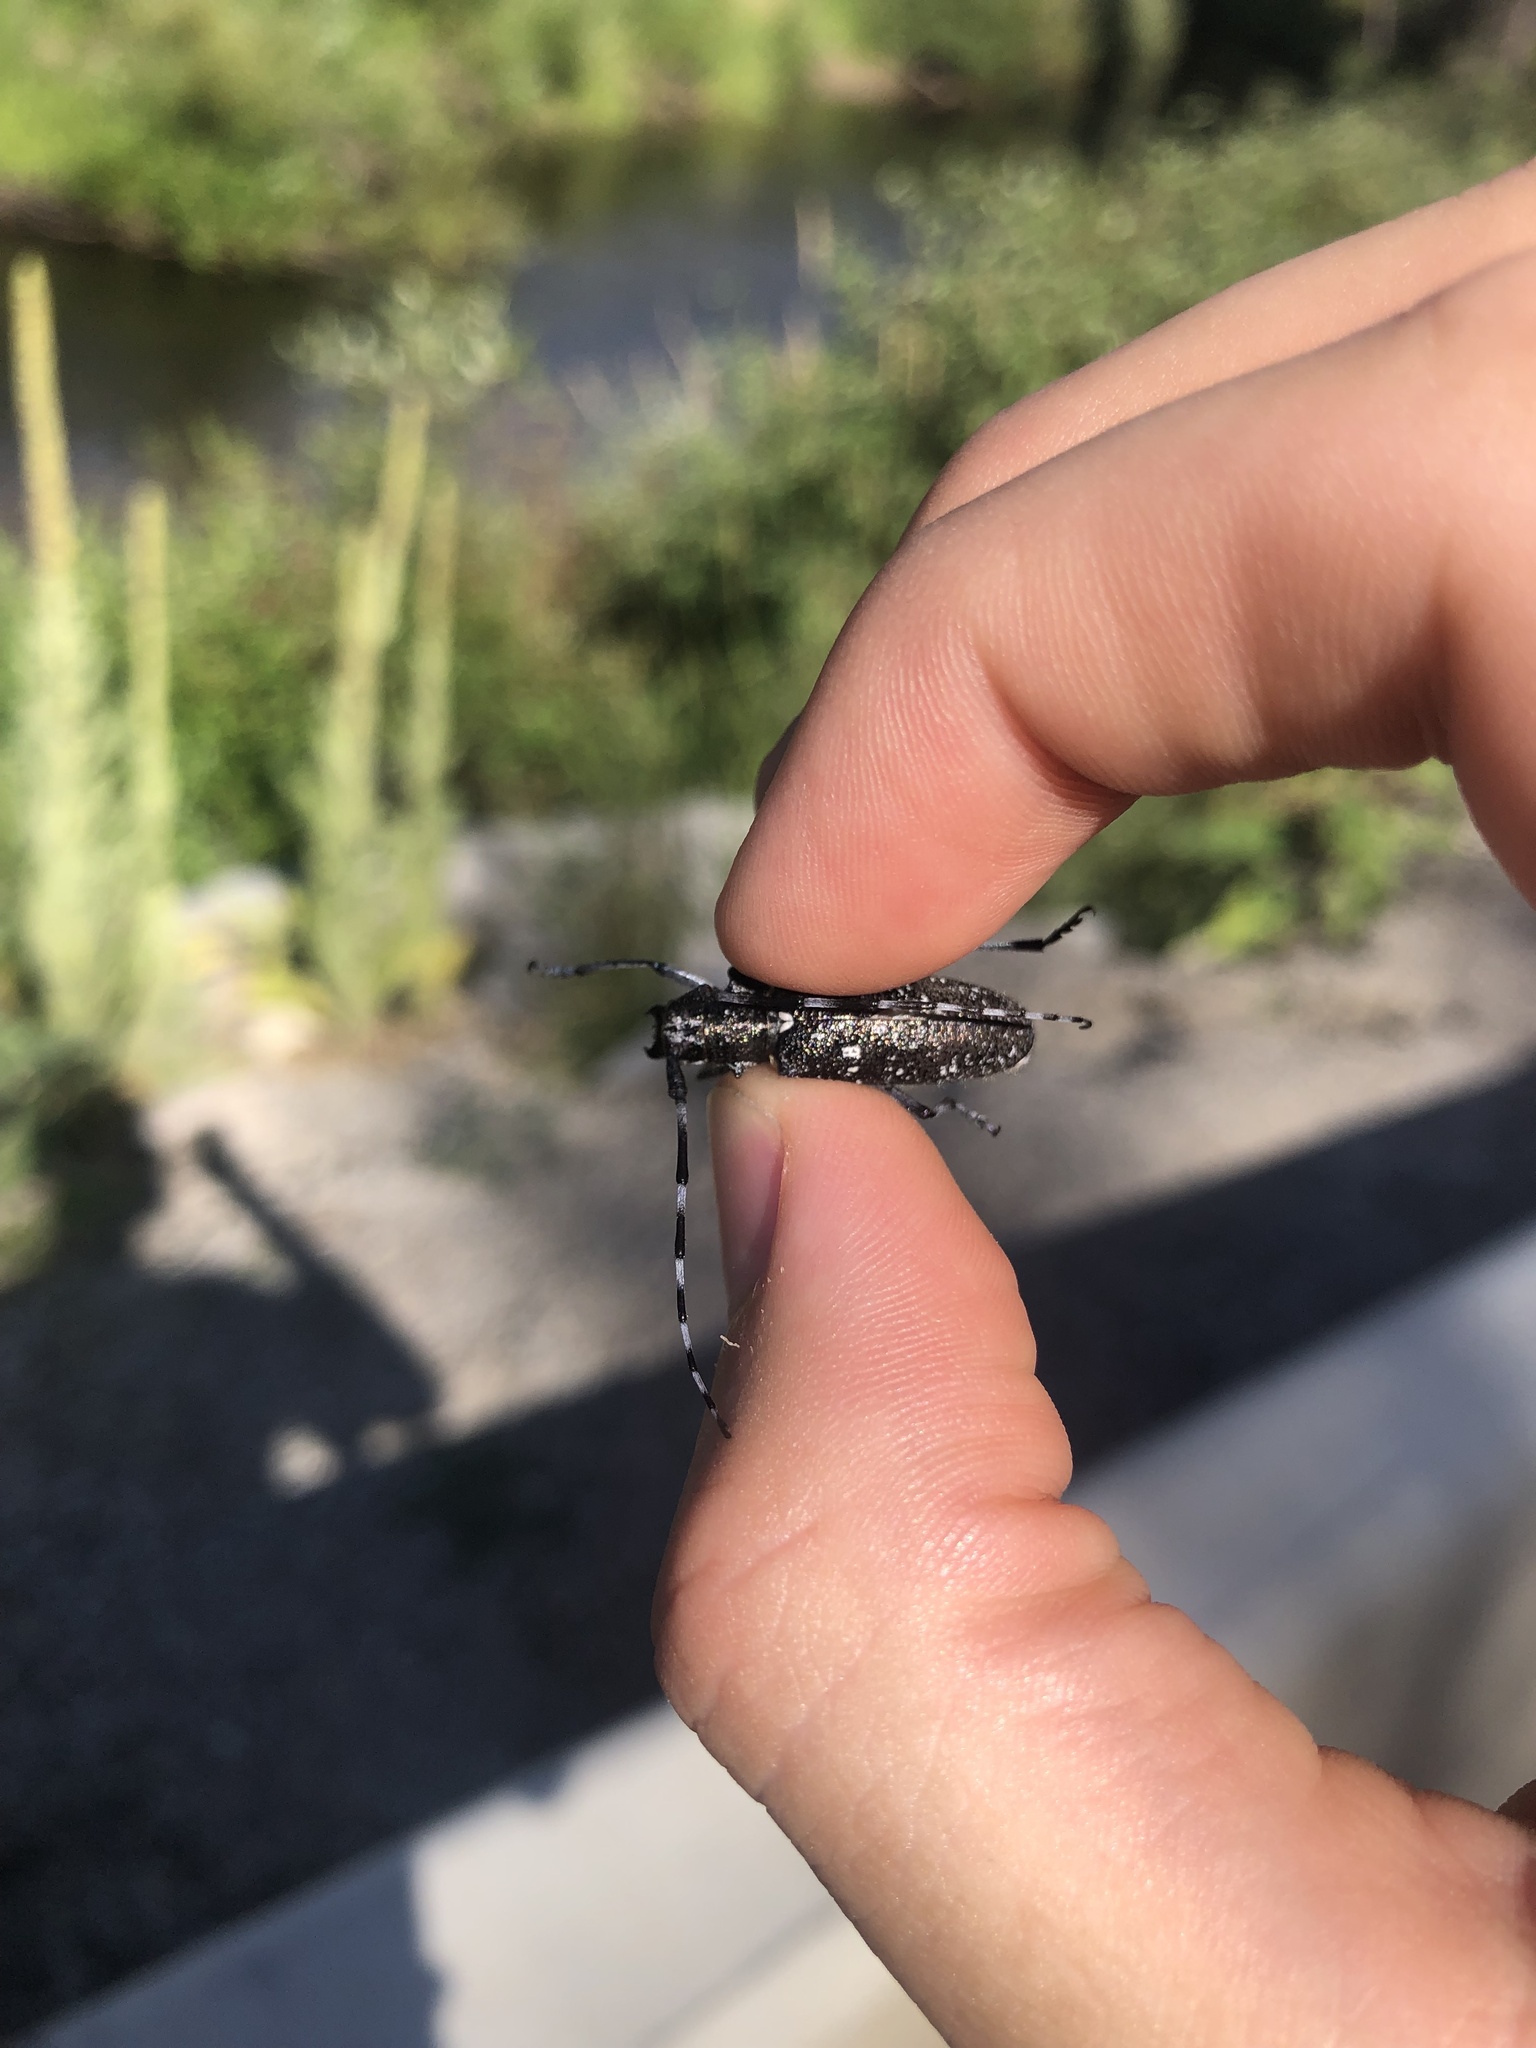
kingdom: Animalia
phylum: Arthropoda
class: Insecta
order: Coleoptera
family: Cerambycidae
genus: Monochamus
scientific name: Monochamus scutellatus
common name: White-spotted sawyer beetle
